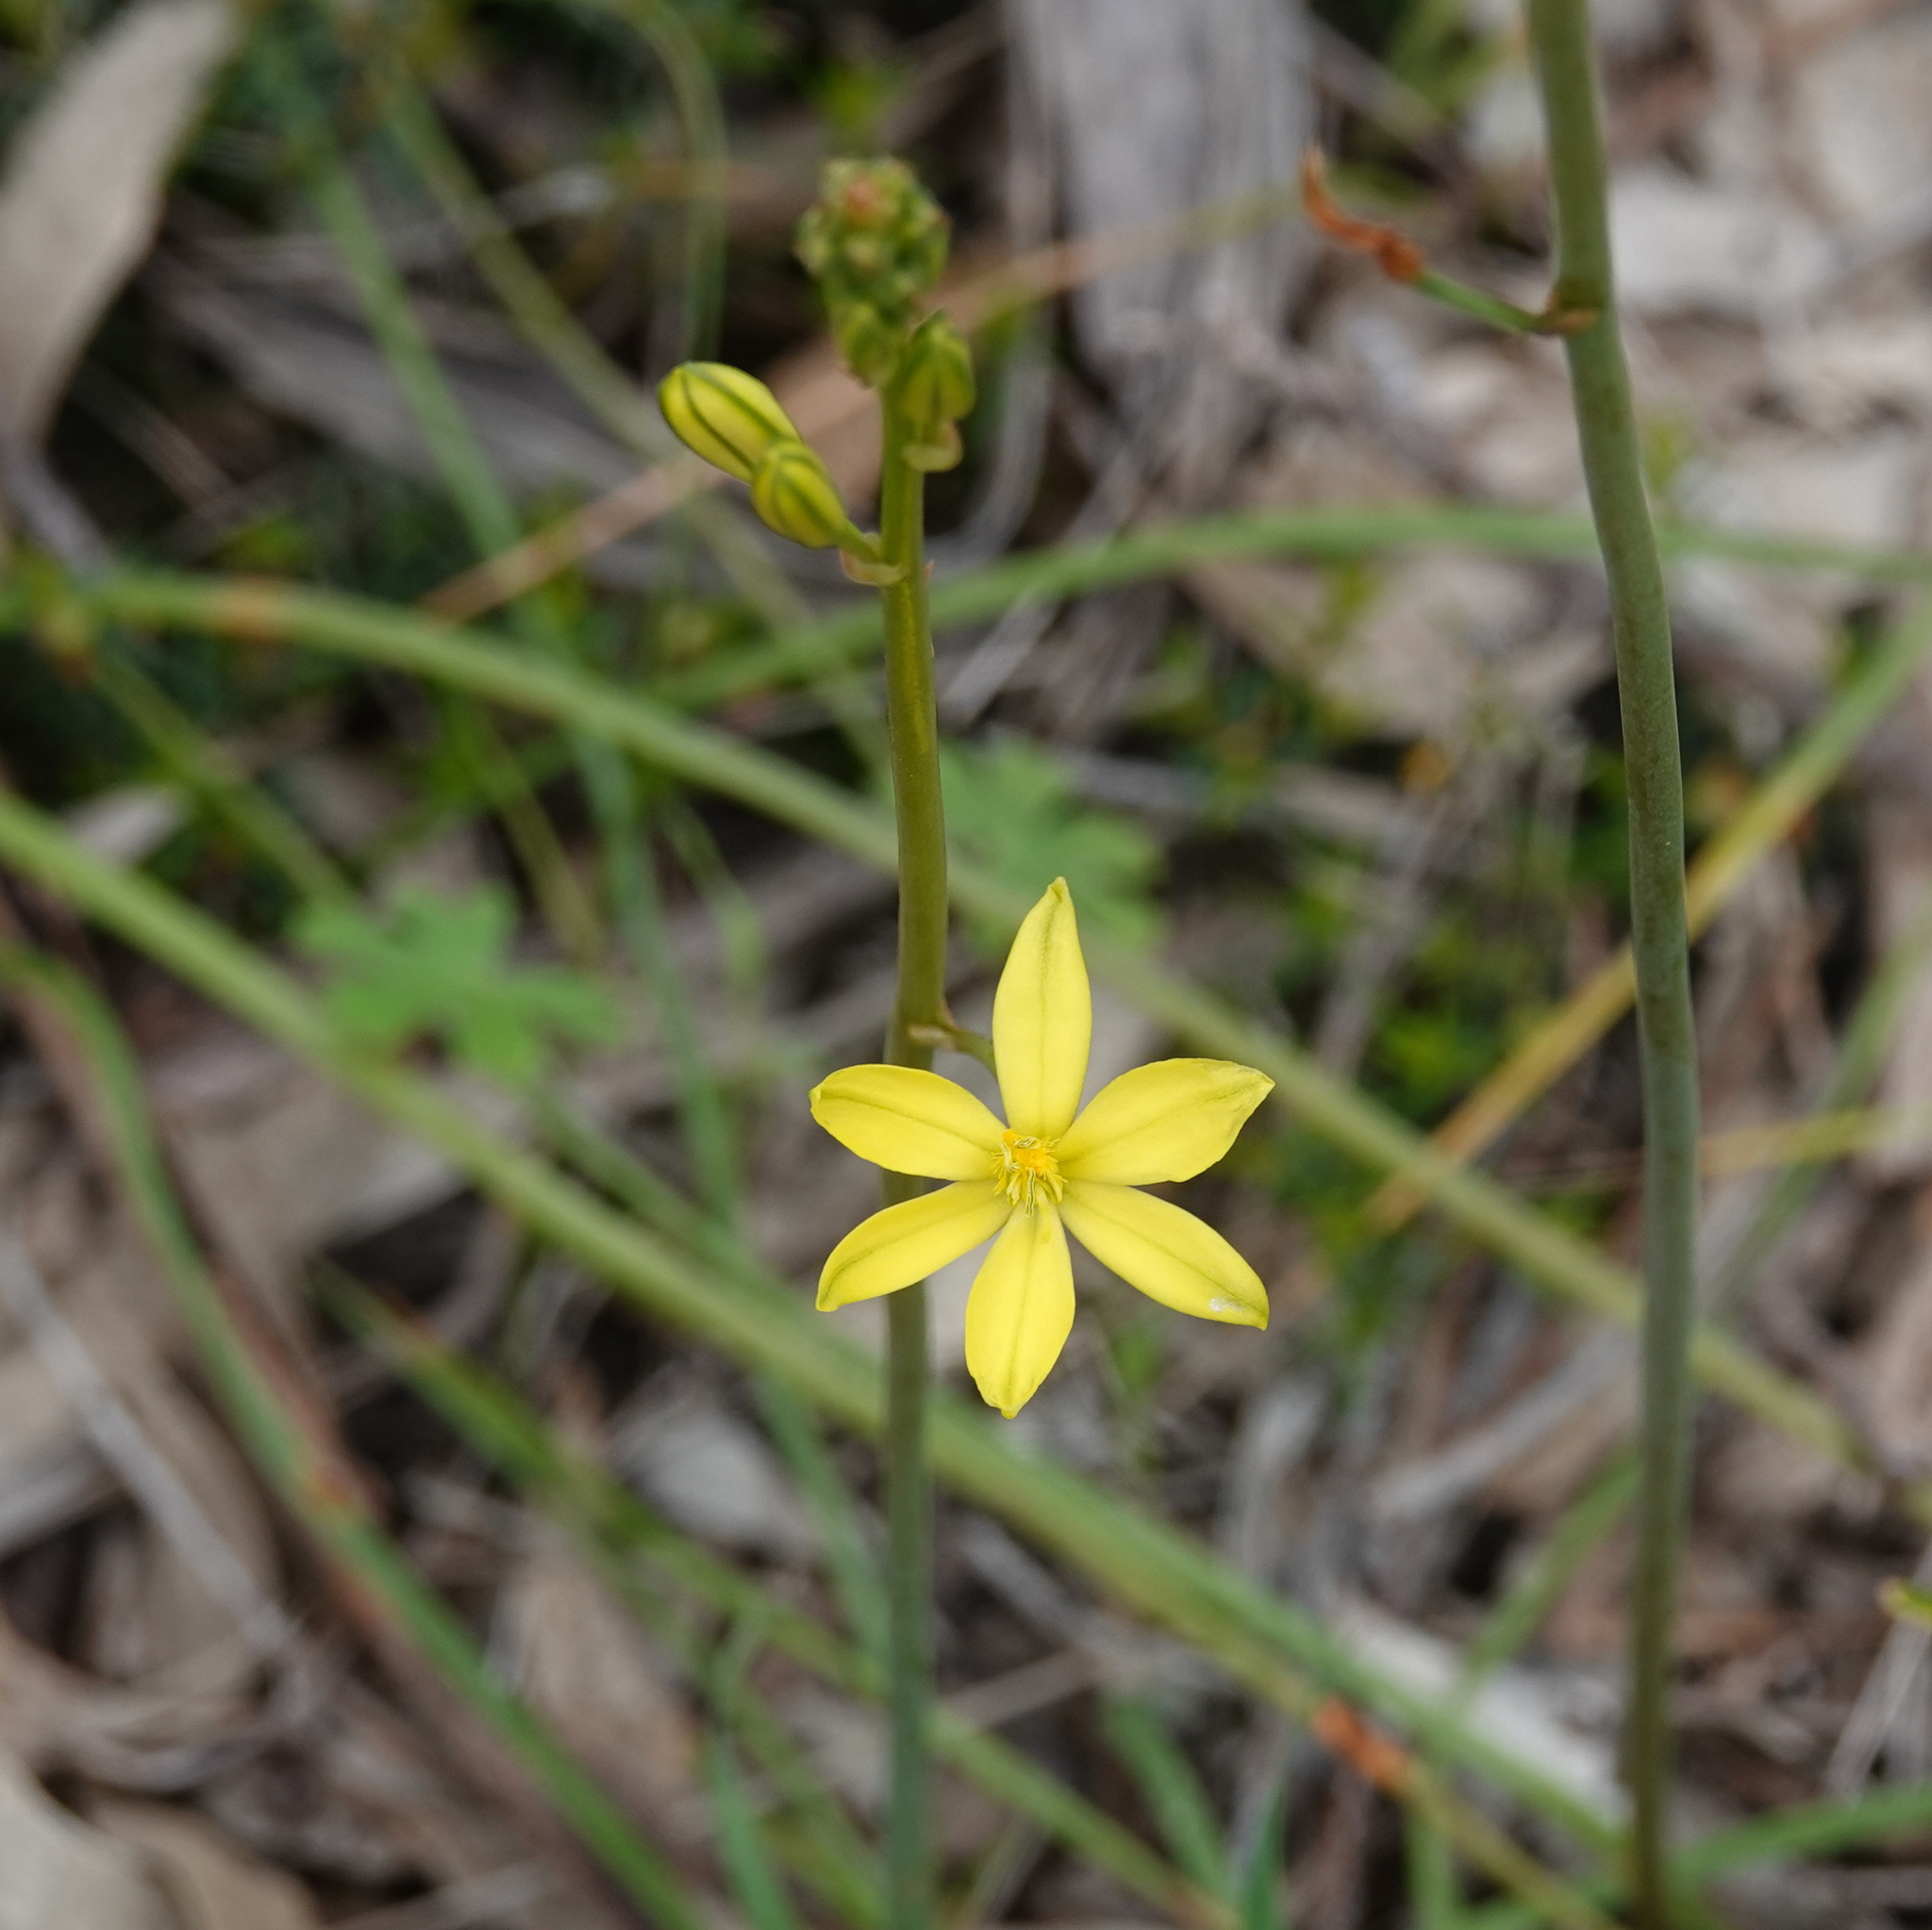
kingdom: Plantae
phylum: Tracheophyta
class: Liliopsida
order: Asparagales
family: Asphodelaceae
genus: Bulbine
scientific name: Bulbine bulbosa
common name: Golden-lily
